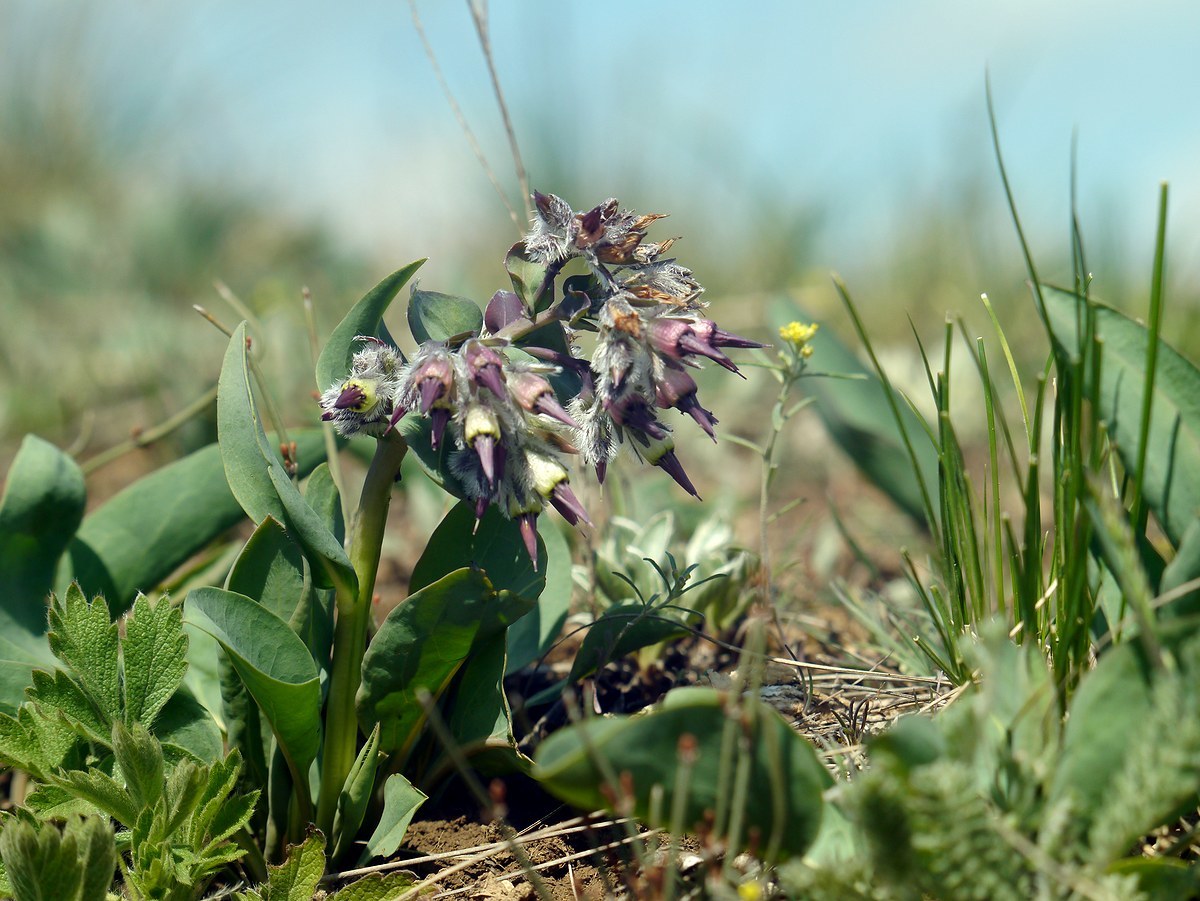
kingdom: Plantae
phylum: Tracheophyta
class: Magnoliopsida
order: Boraginales
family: Boraginaceae
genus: Rindera
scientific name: Rindera tetraspis
